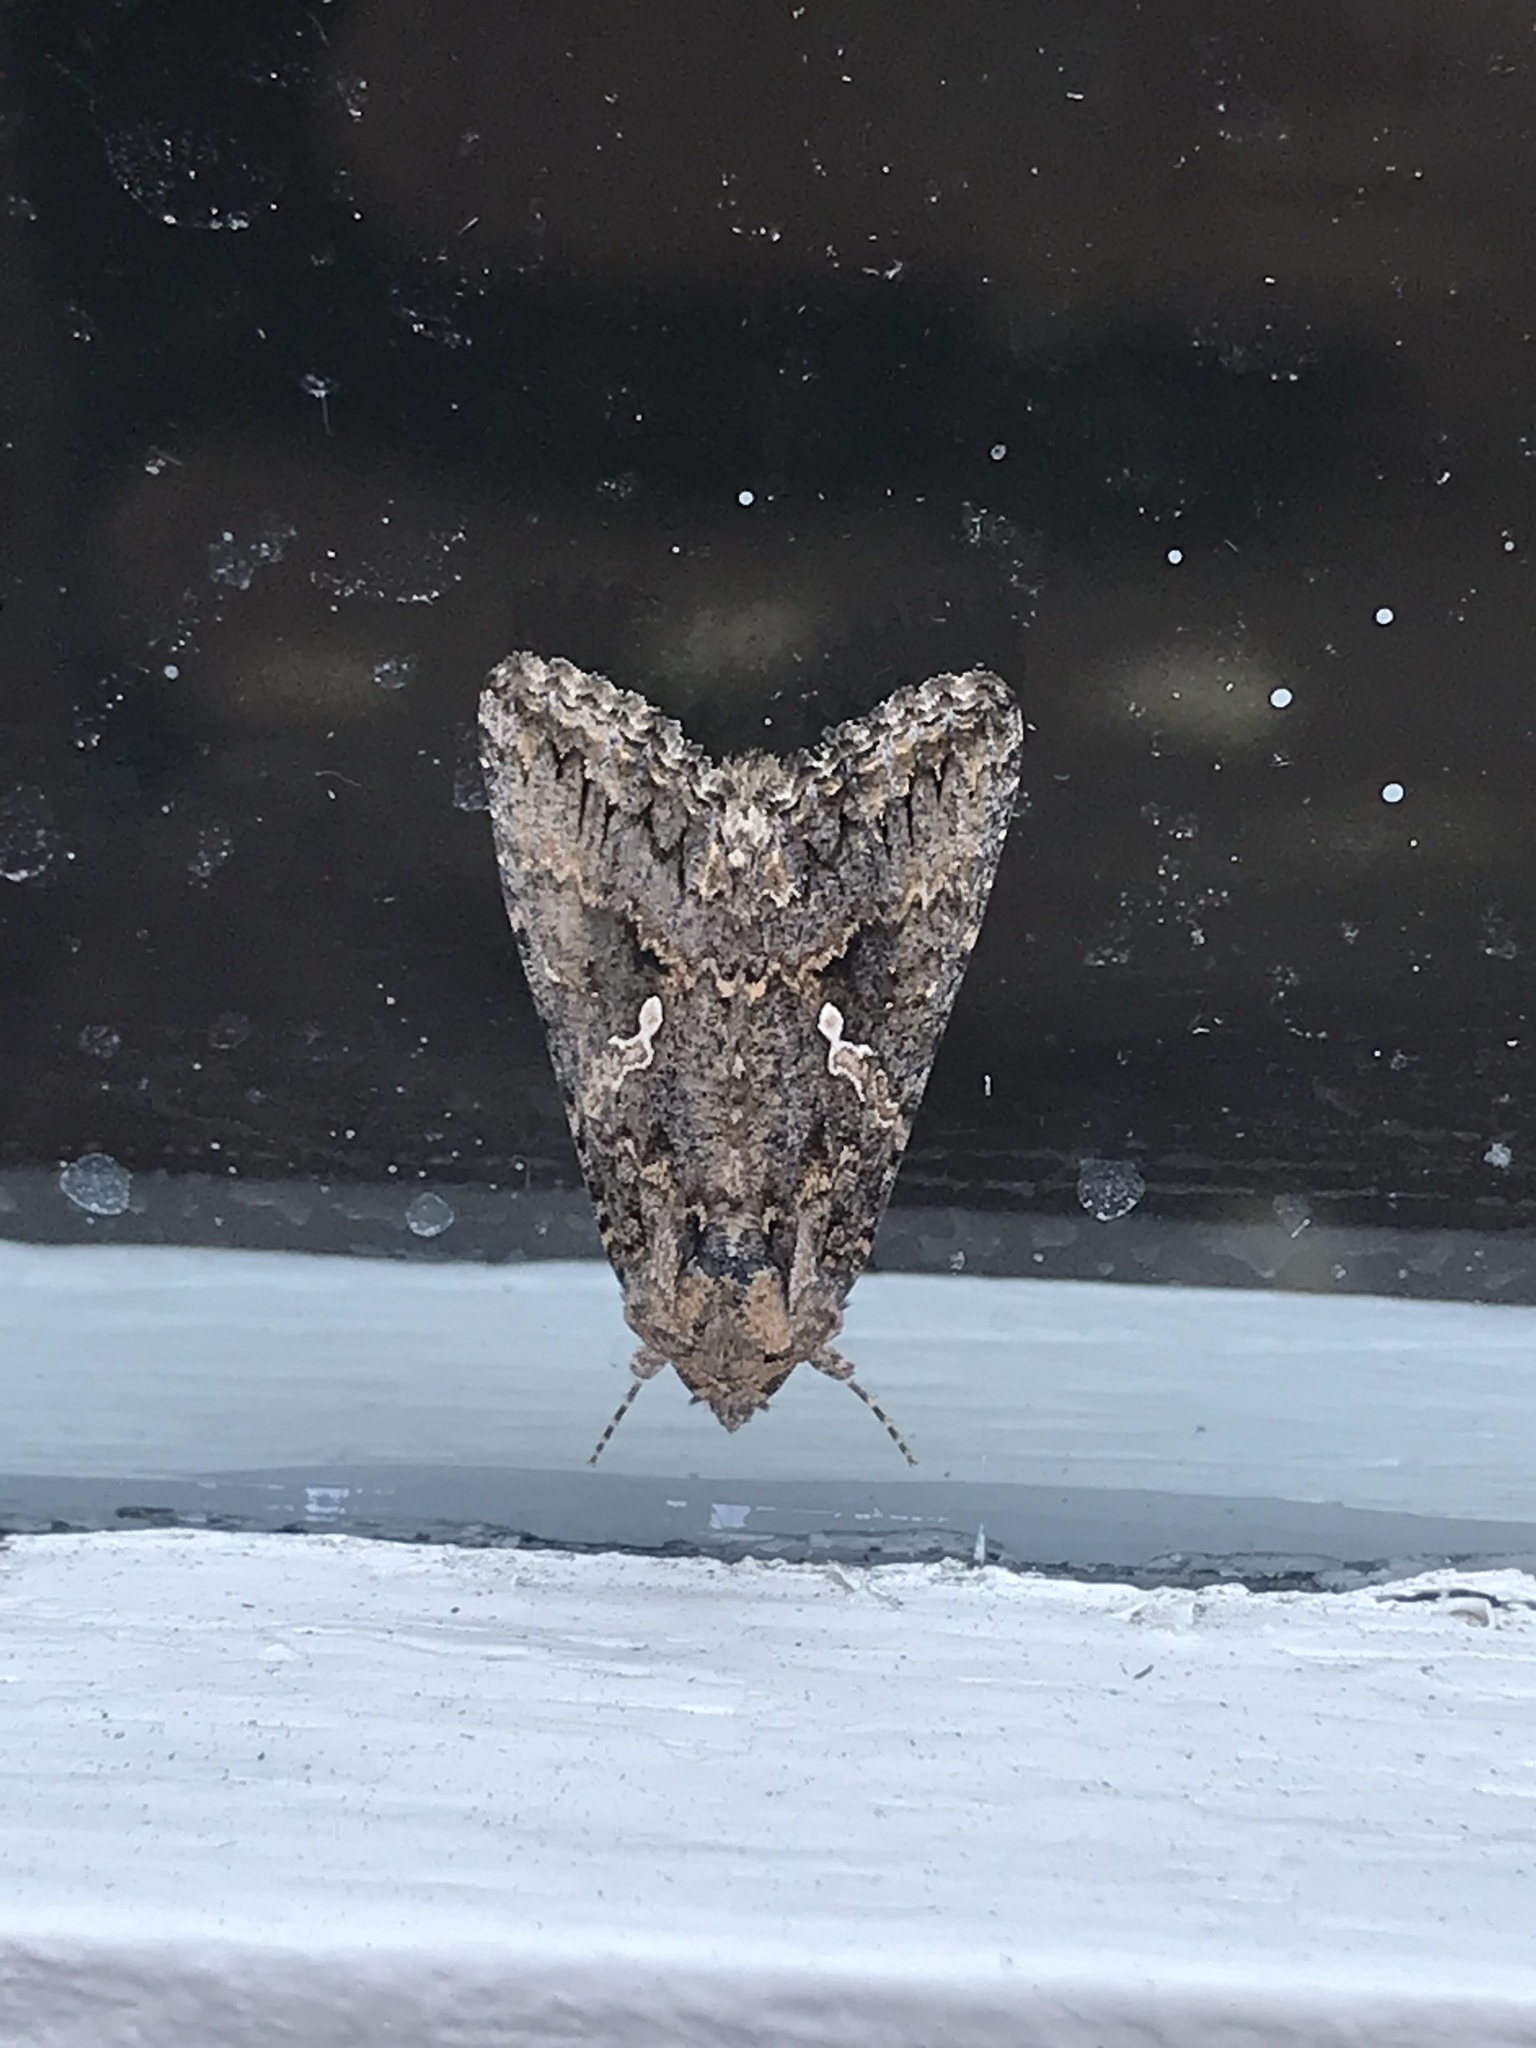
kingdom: Animalia
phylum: Arthropoda
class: Insecta
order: Lepidoptera
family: Noctuidae
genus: Trichoplusia
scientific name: Trichoplusia ni
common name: Ni moth
